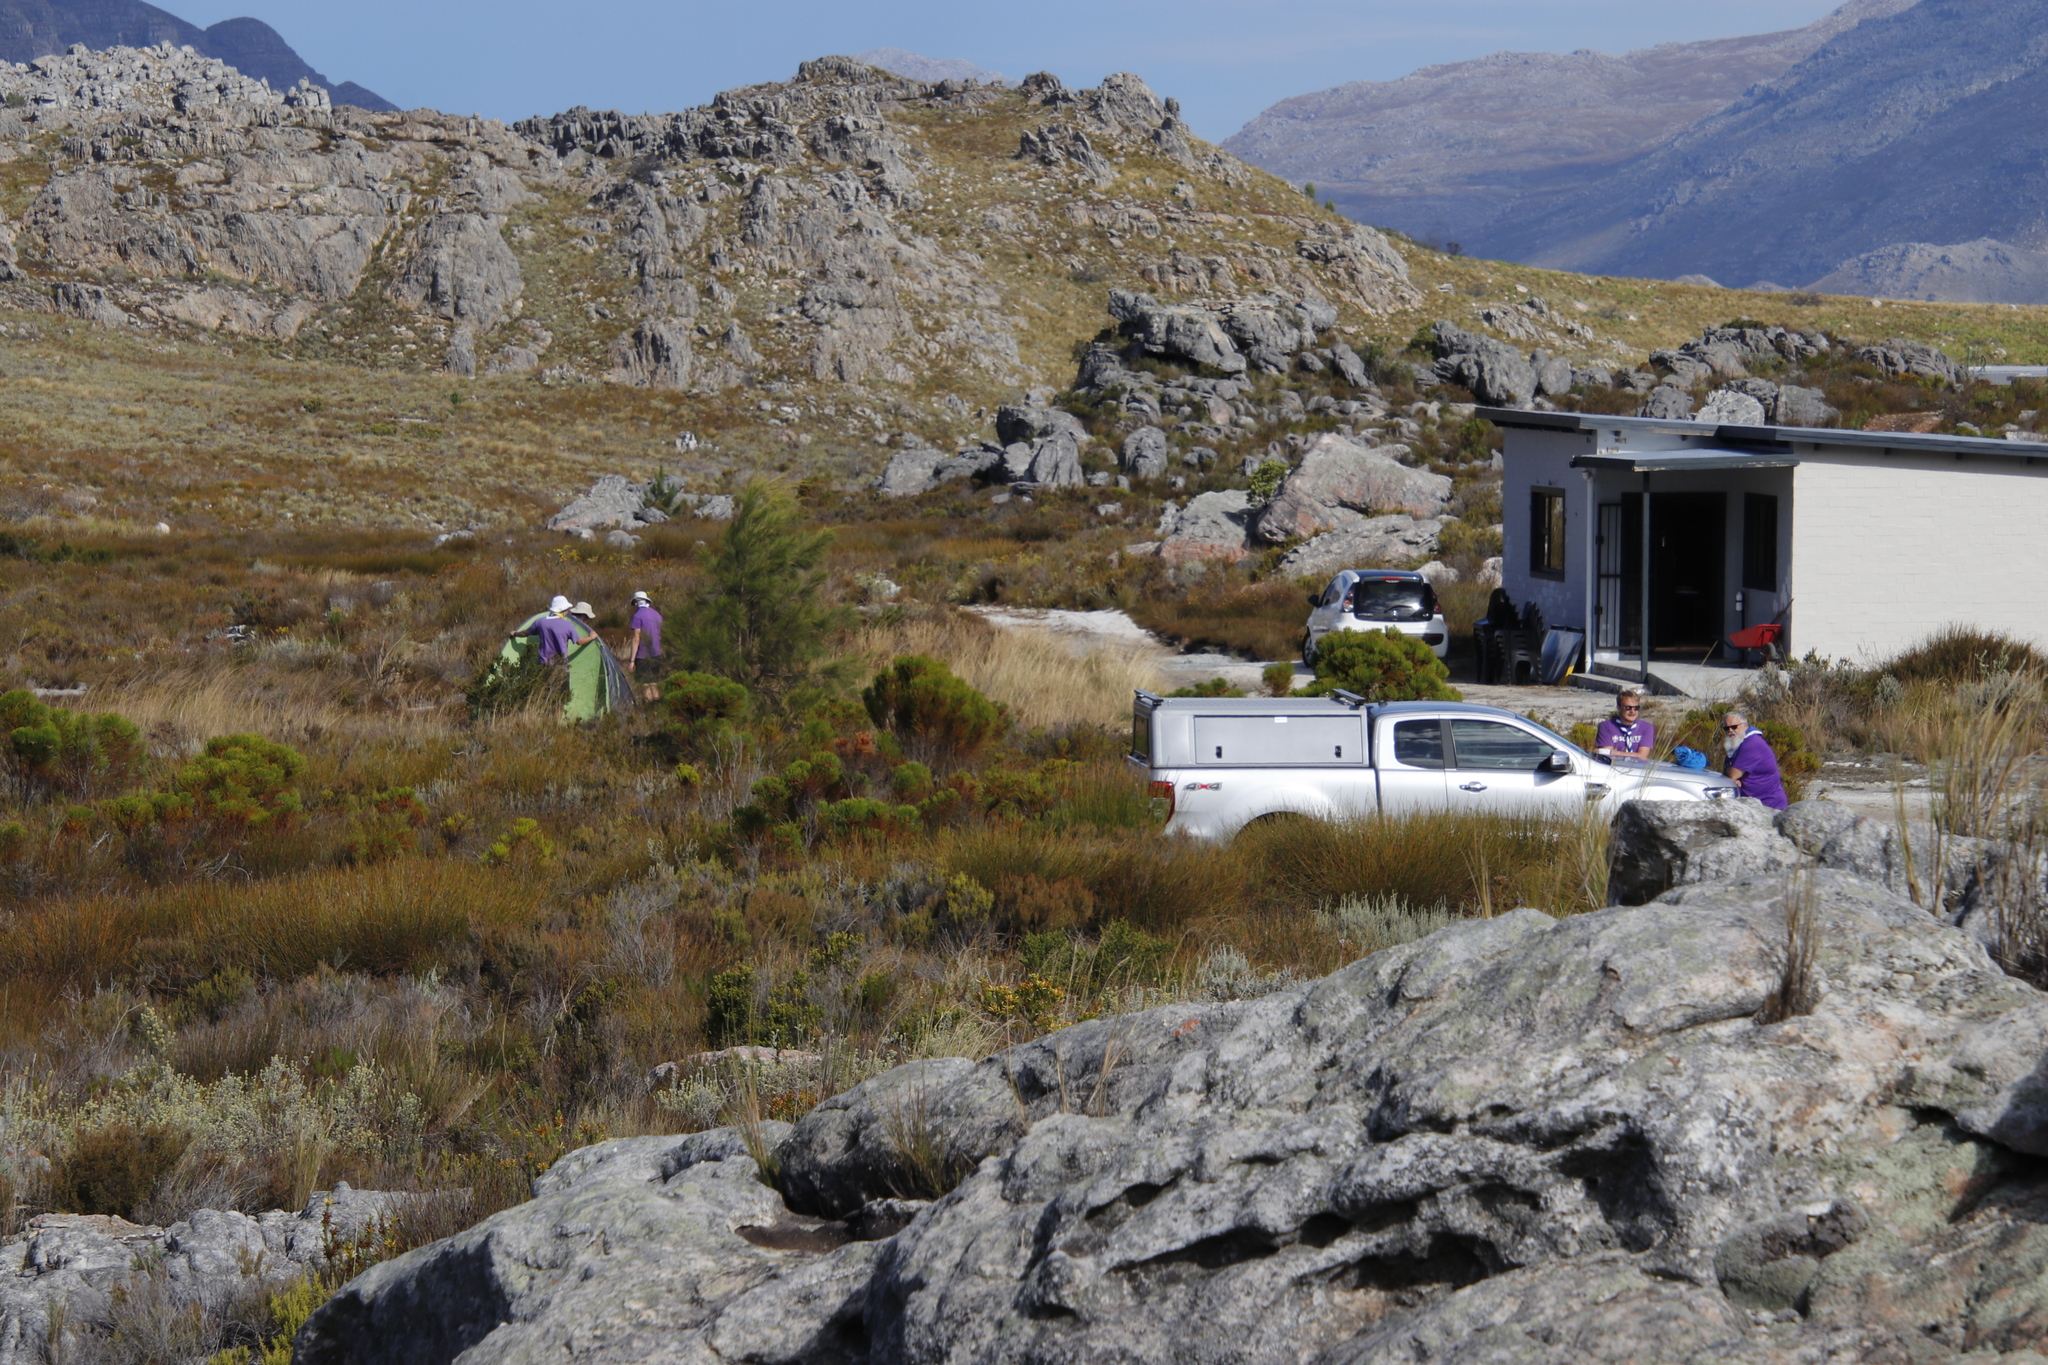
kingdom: Plantae
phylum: Tracheophyta
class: Magnoliopsida
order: Fagales
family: Casuarinaceae
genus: Casuarina
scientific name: Casuarina cunninghamiana
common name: River sheoak
